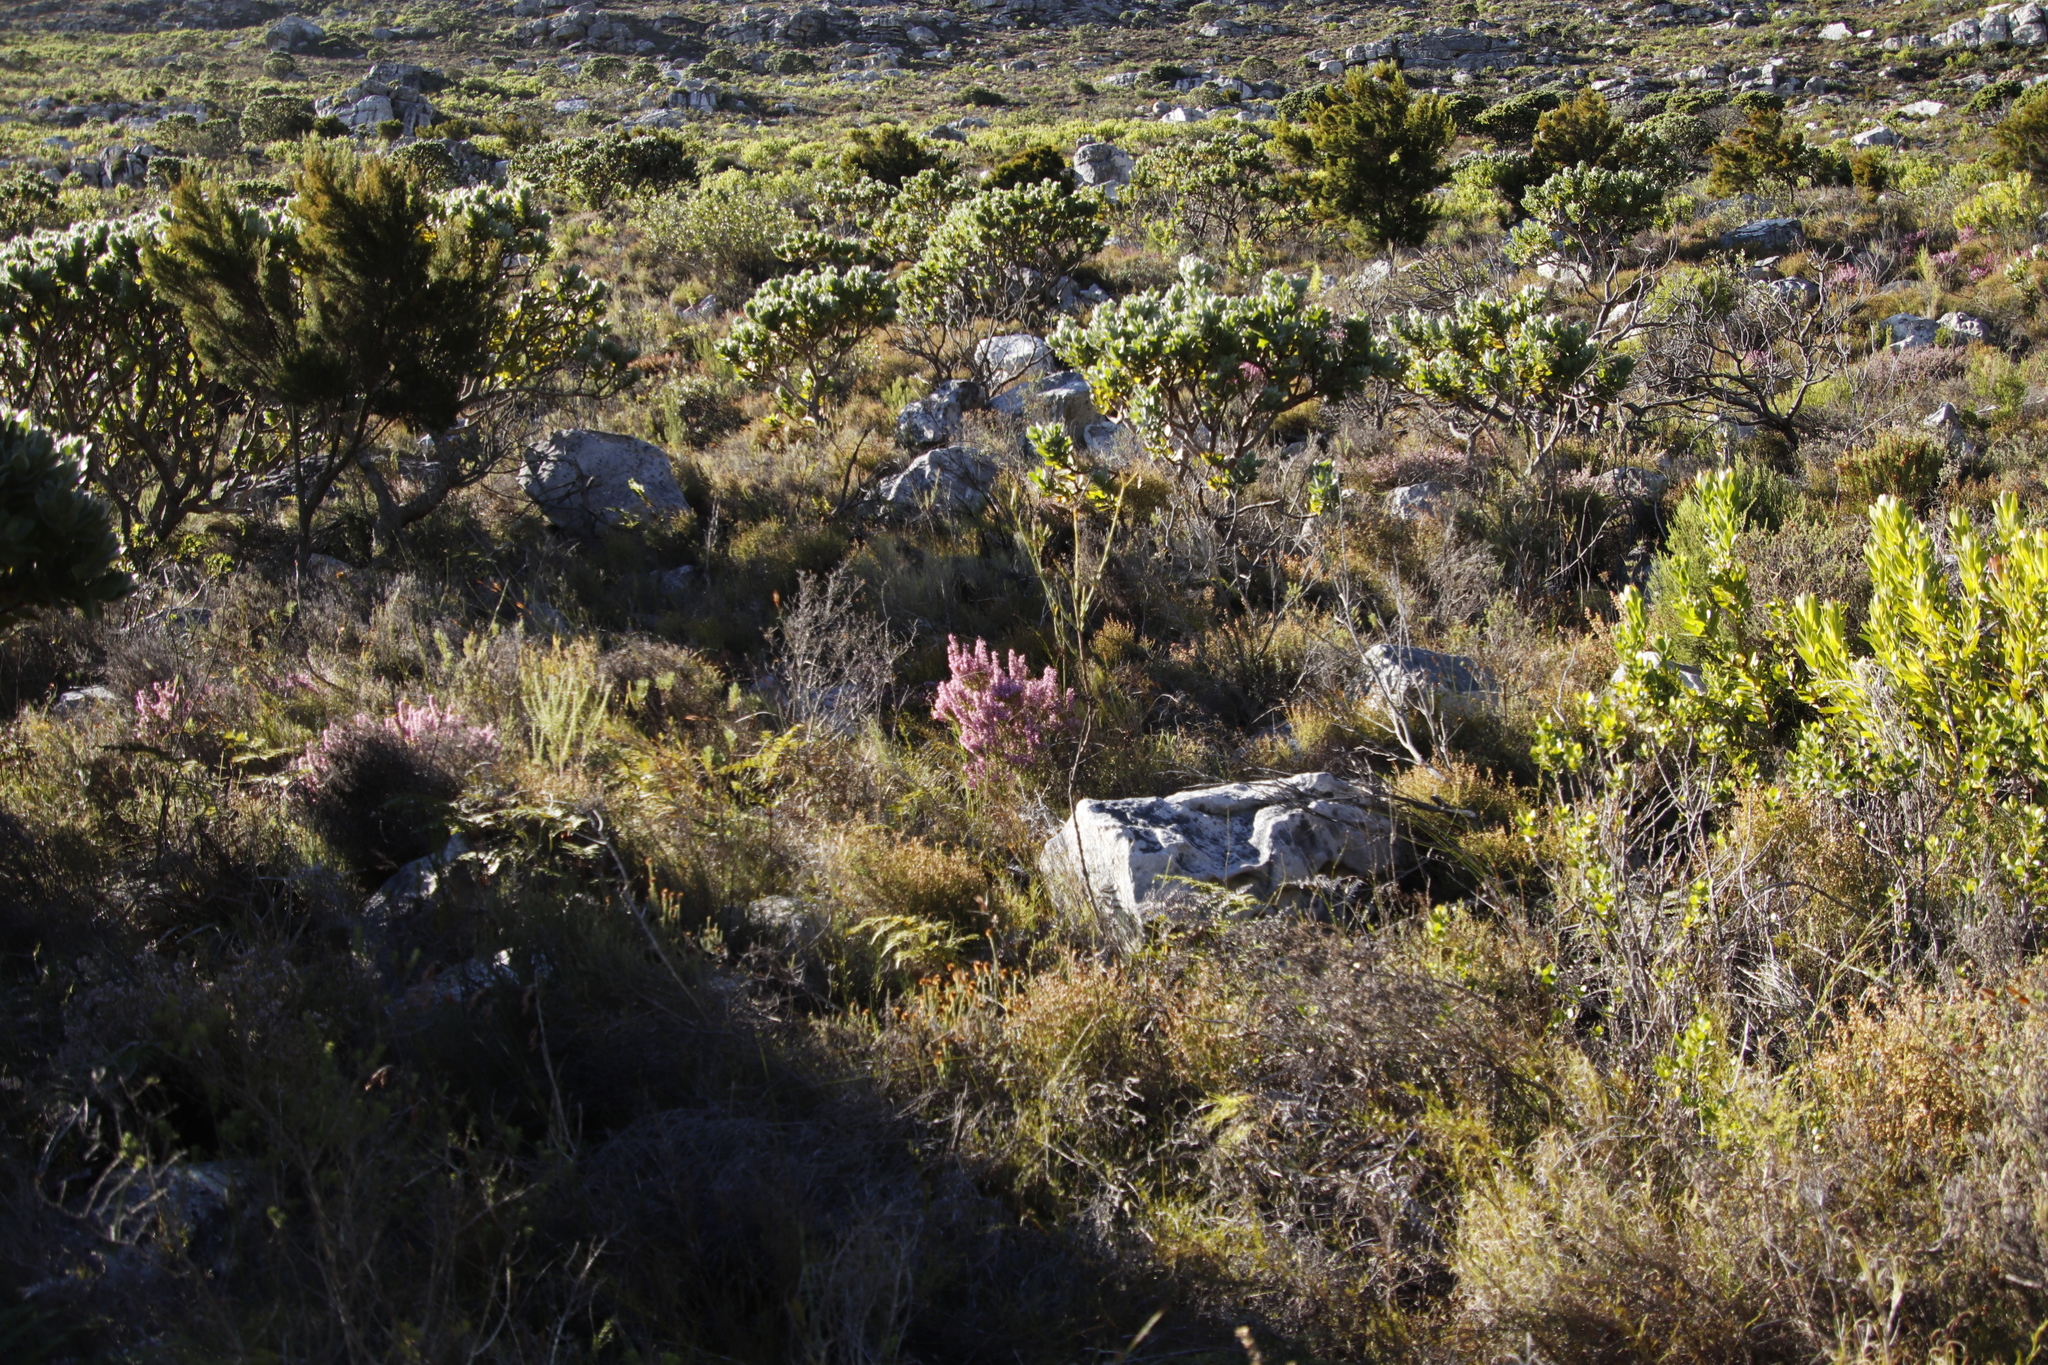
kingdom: Plantae
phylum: Tracheophyta
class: Magnoliopsida
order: Ericales
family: Ericaceae
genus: Erica
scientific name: Erica nudiflora
